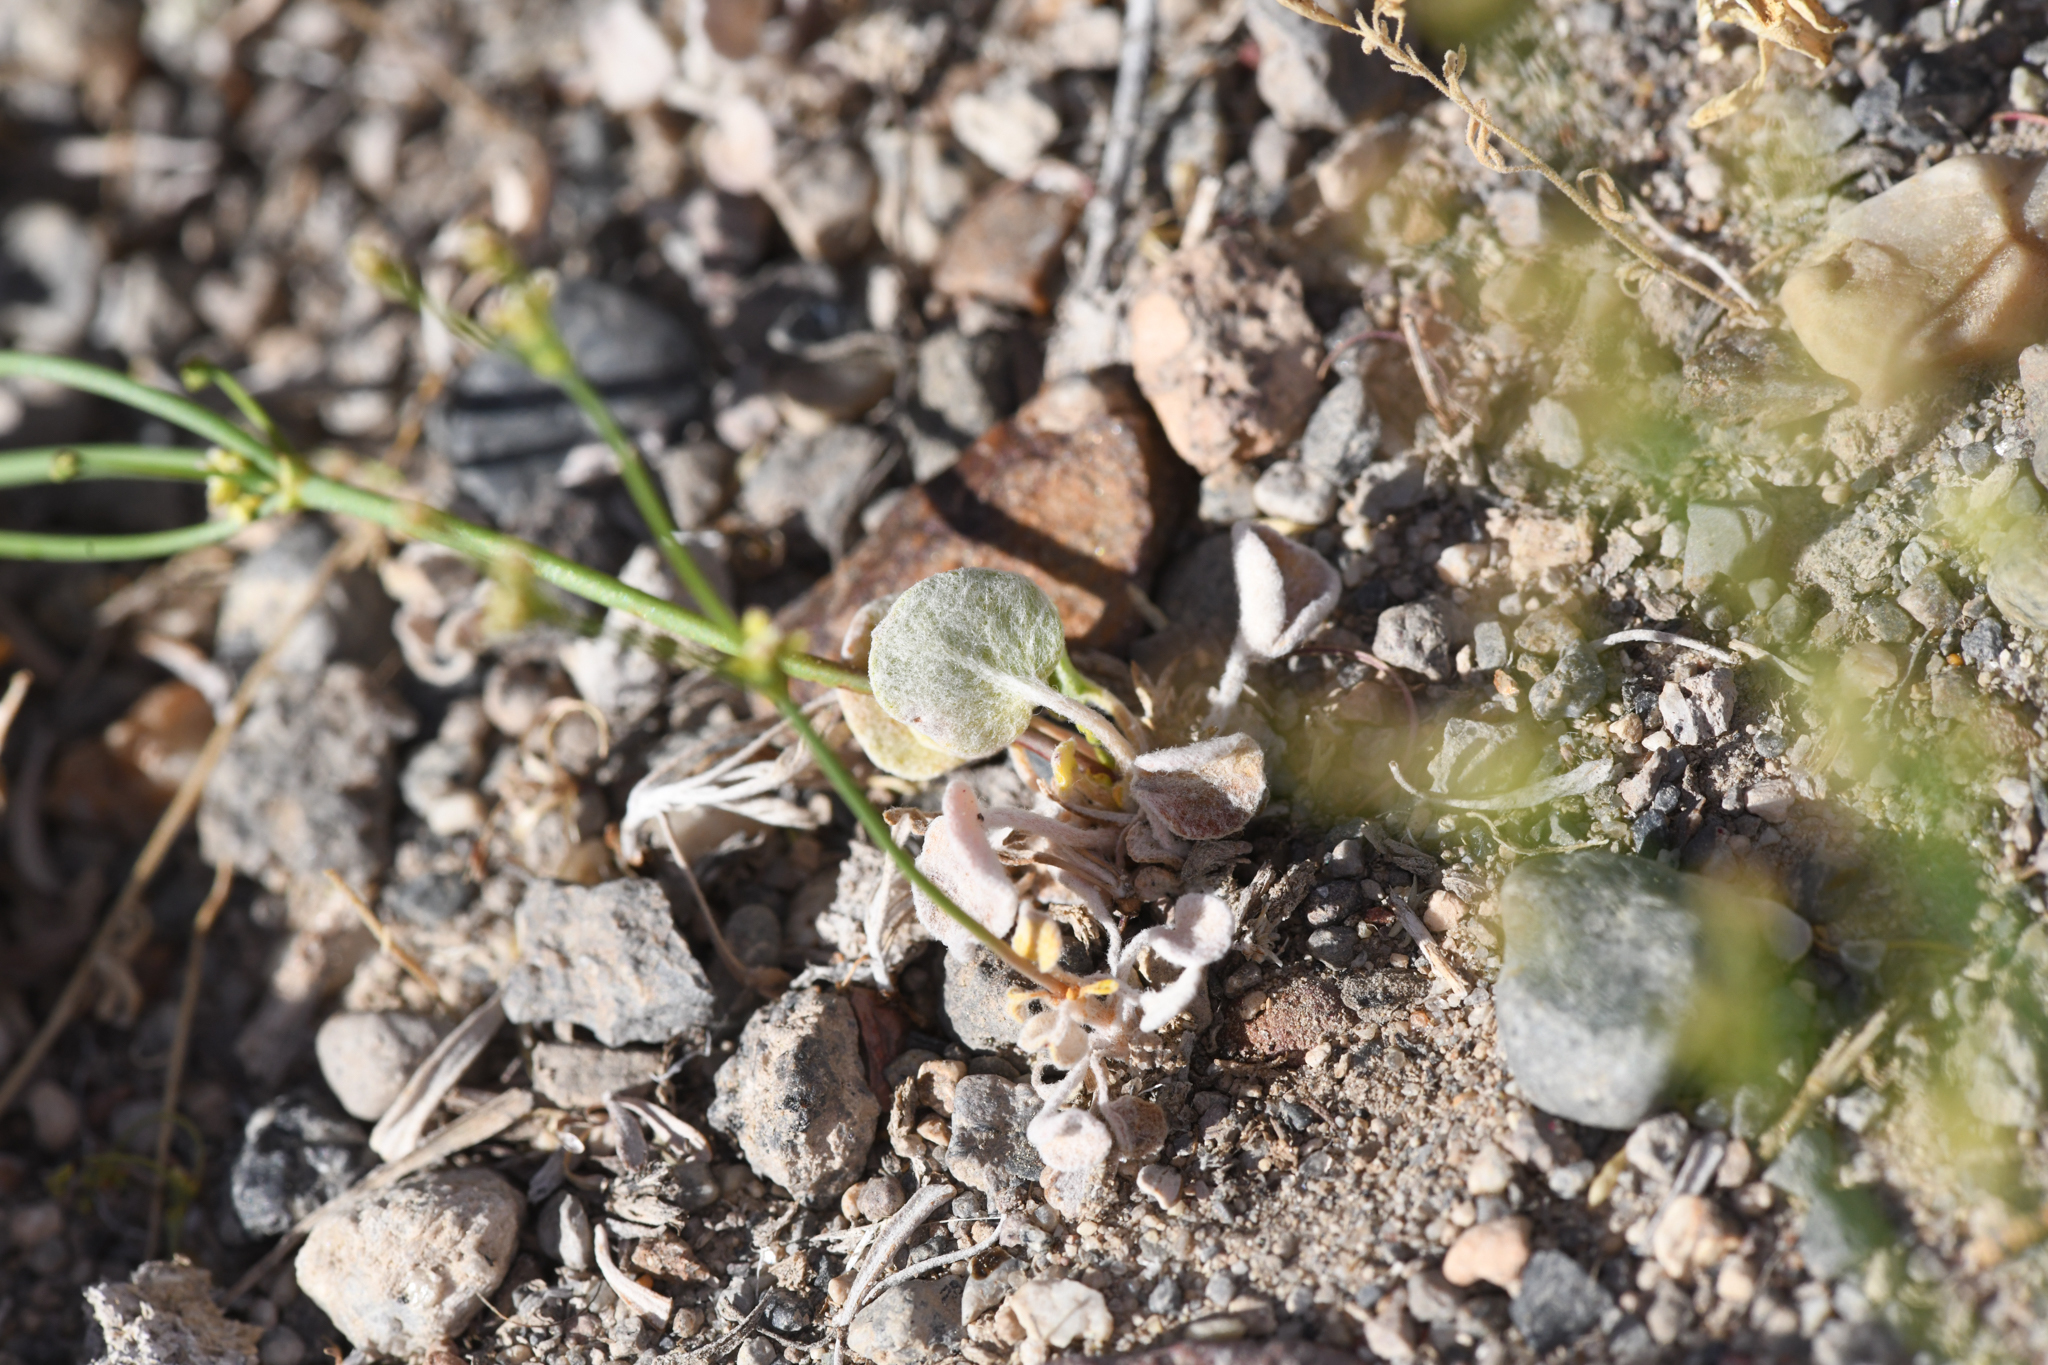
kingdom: Plantae
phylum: Tracheophyta
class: Magnoliopsida
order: Caryophyllales
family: Polygonaceae
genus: Eriogonum
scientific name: Eriogonum ampullaceum
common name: Mono wild buckwheat
